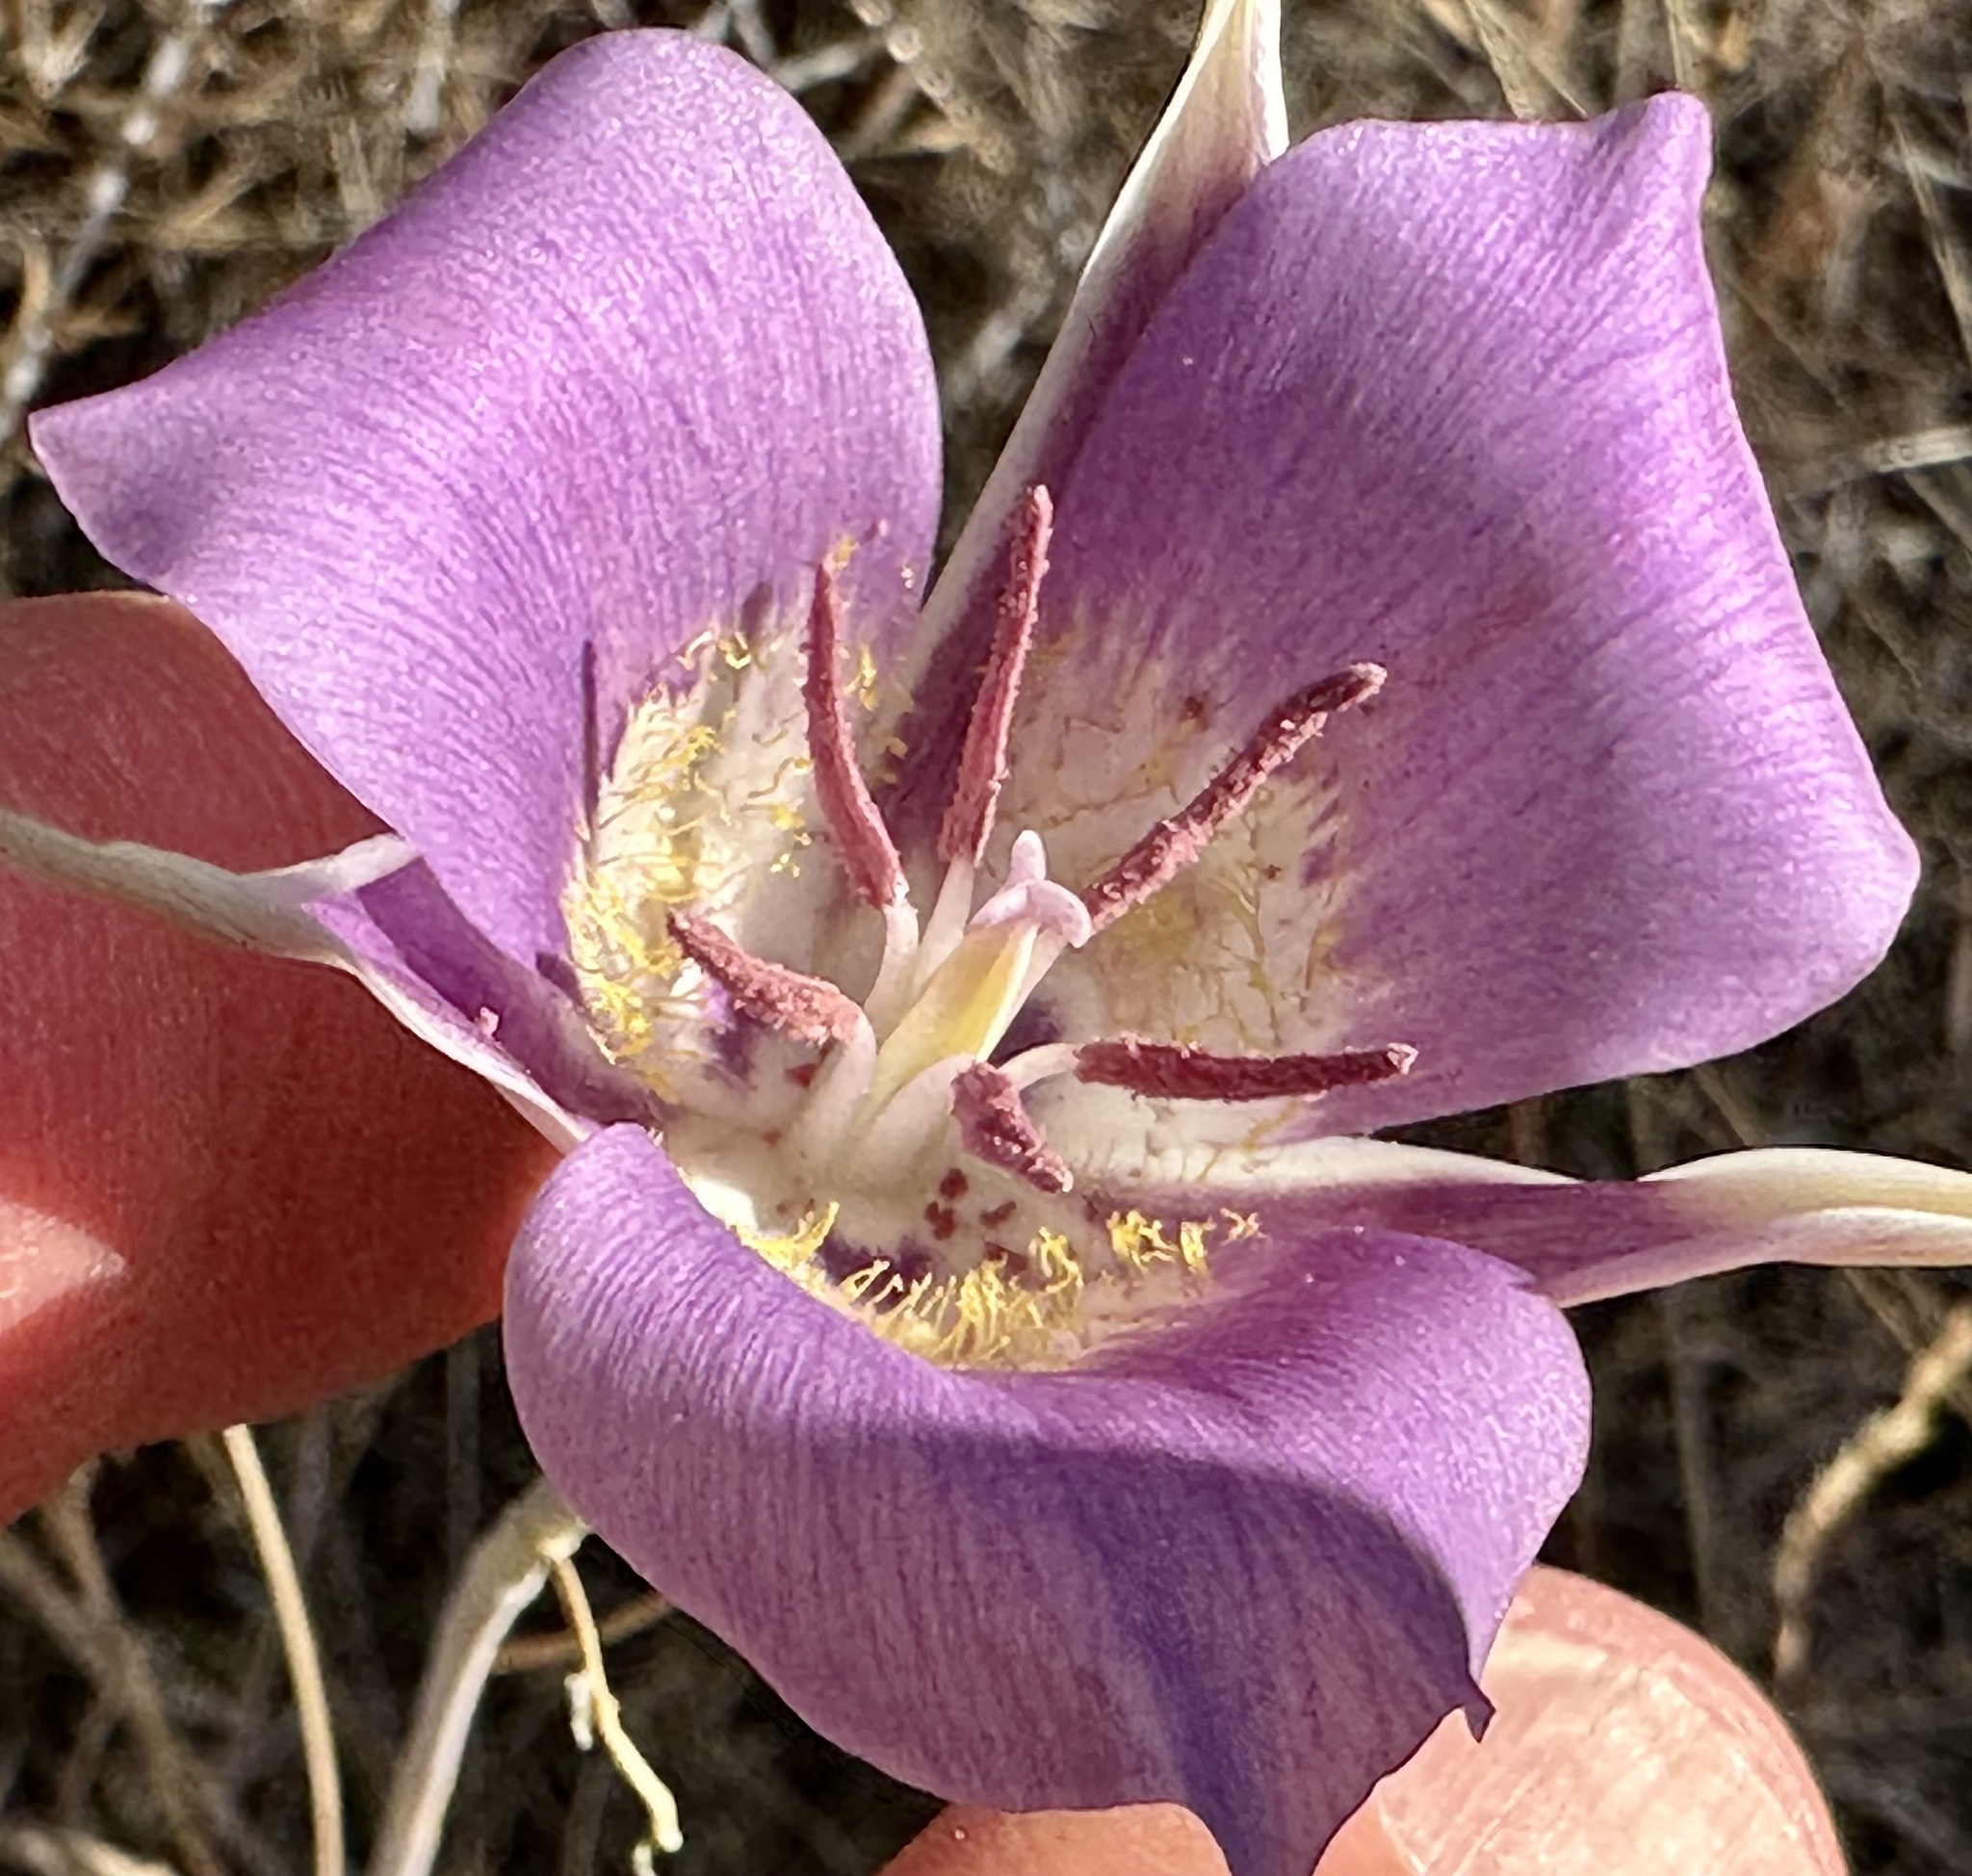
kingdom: Plantae
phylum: Tracheophyta
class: Liliopsida
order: Liliales
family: Liliaceae
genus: Calochortus
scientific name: Calochortus macrocarpus
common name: Green-band mariposa lily
